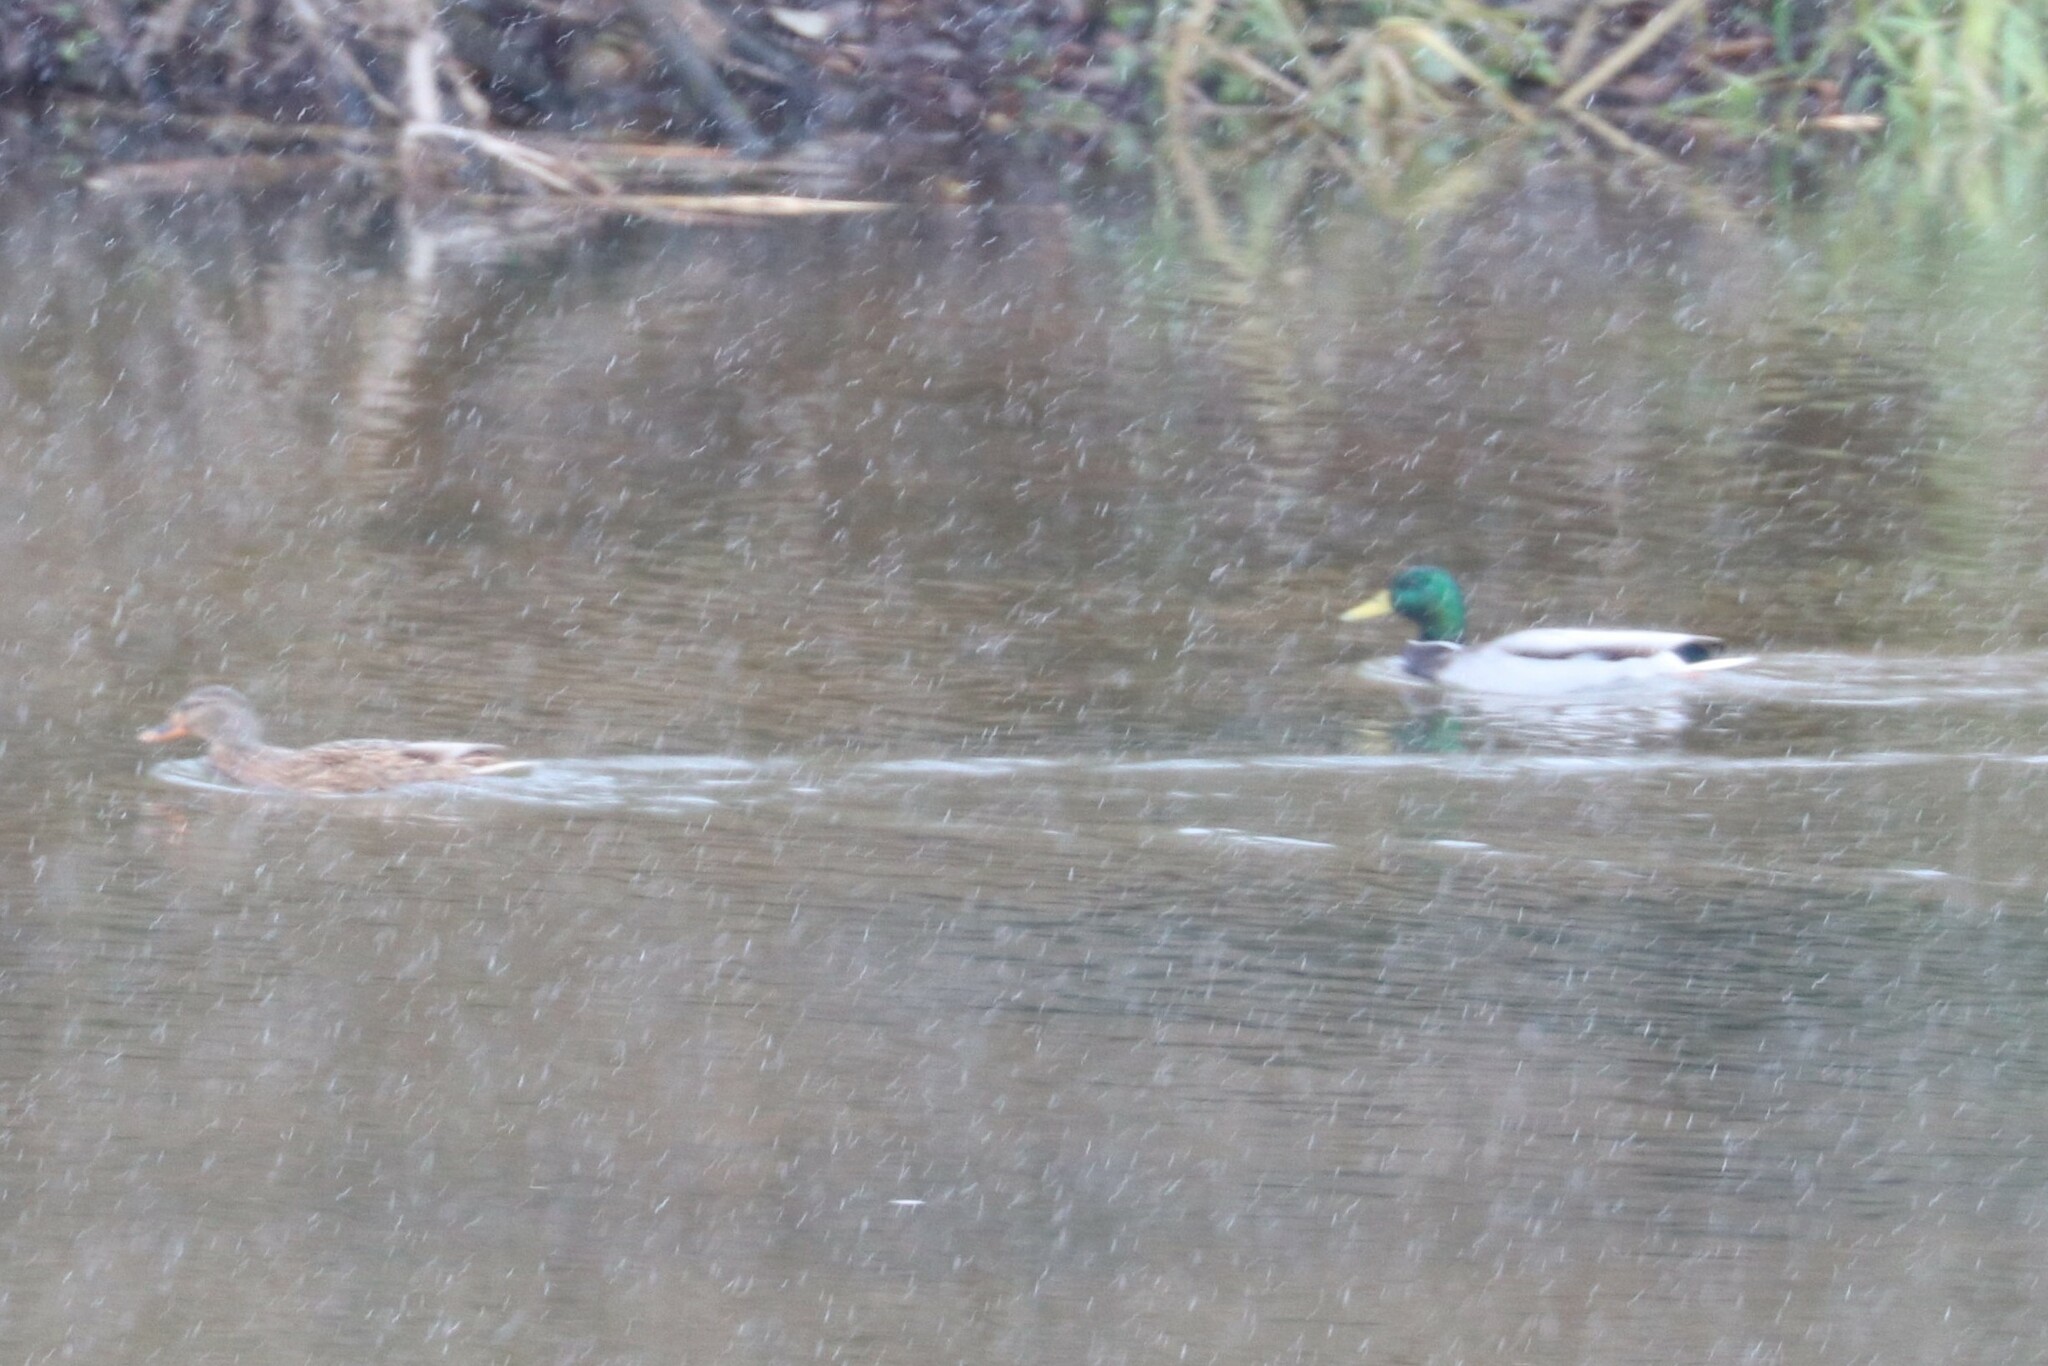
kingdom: Animalia
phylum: Chordata
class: Aves
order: Anseriformes
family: Anatidae
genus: Anas
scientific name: Anas platyrhynchos
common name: Mallard
